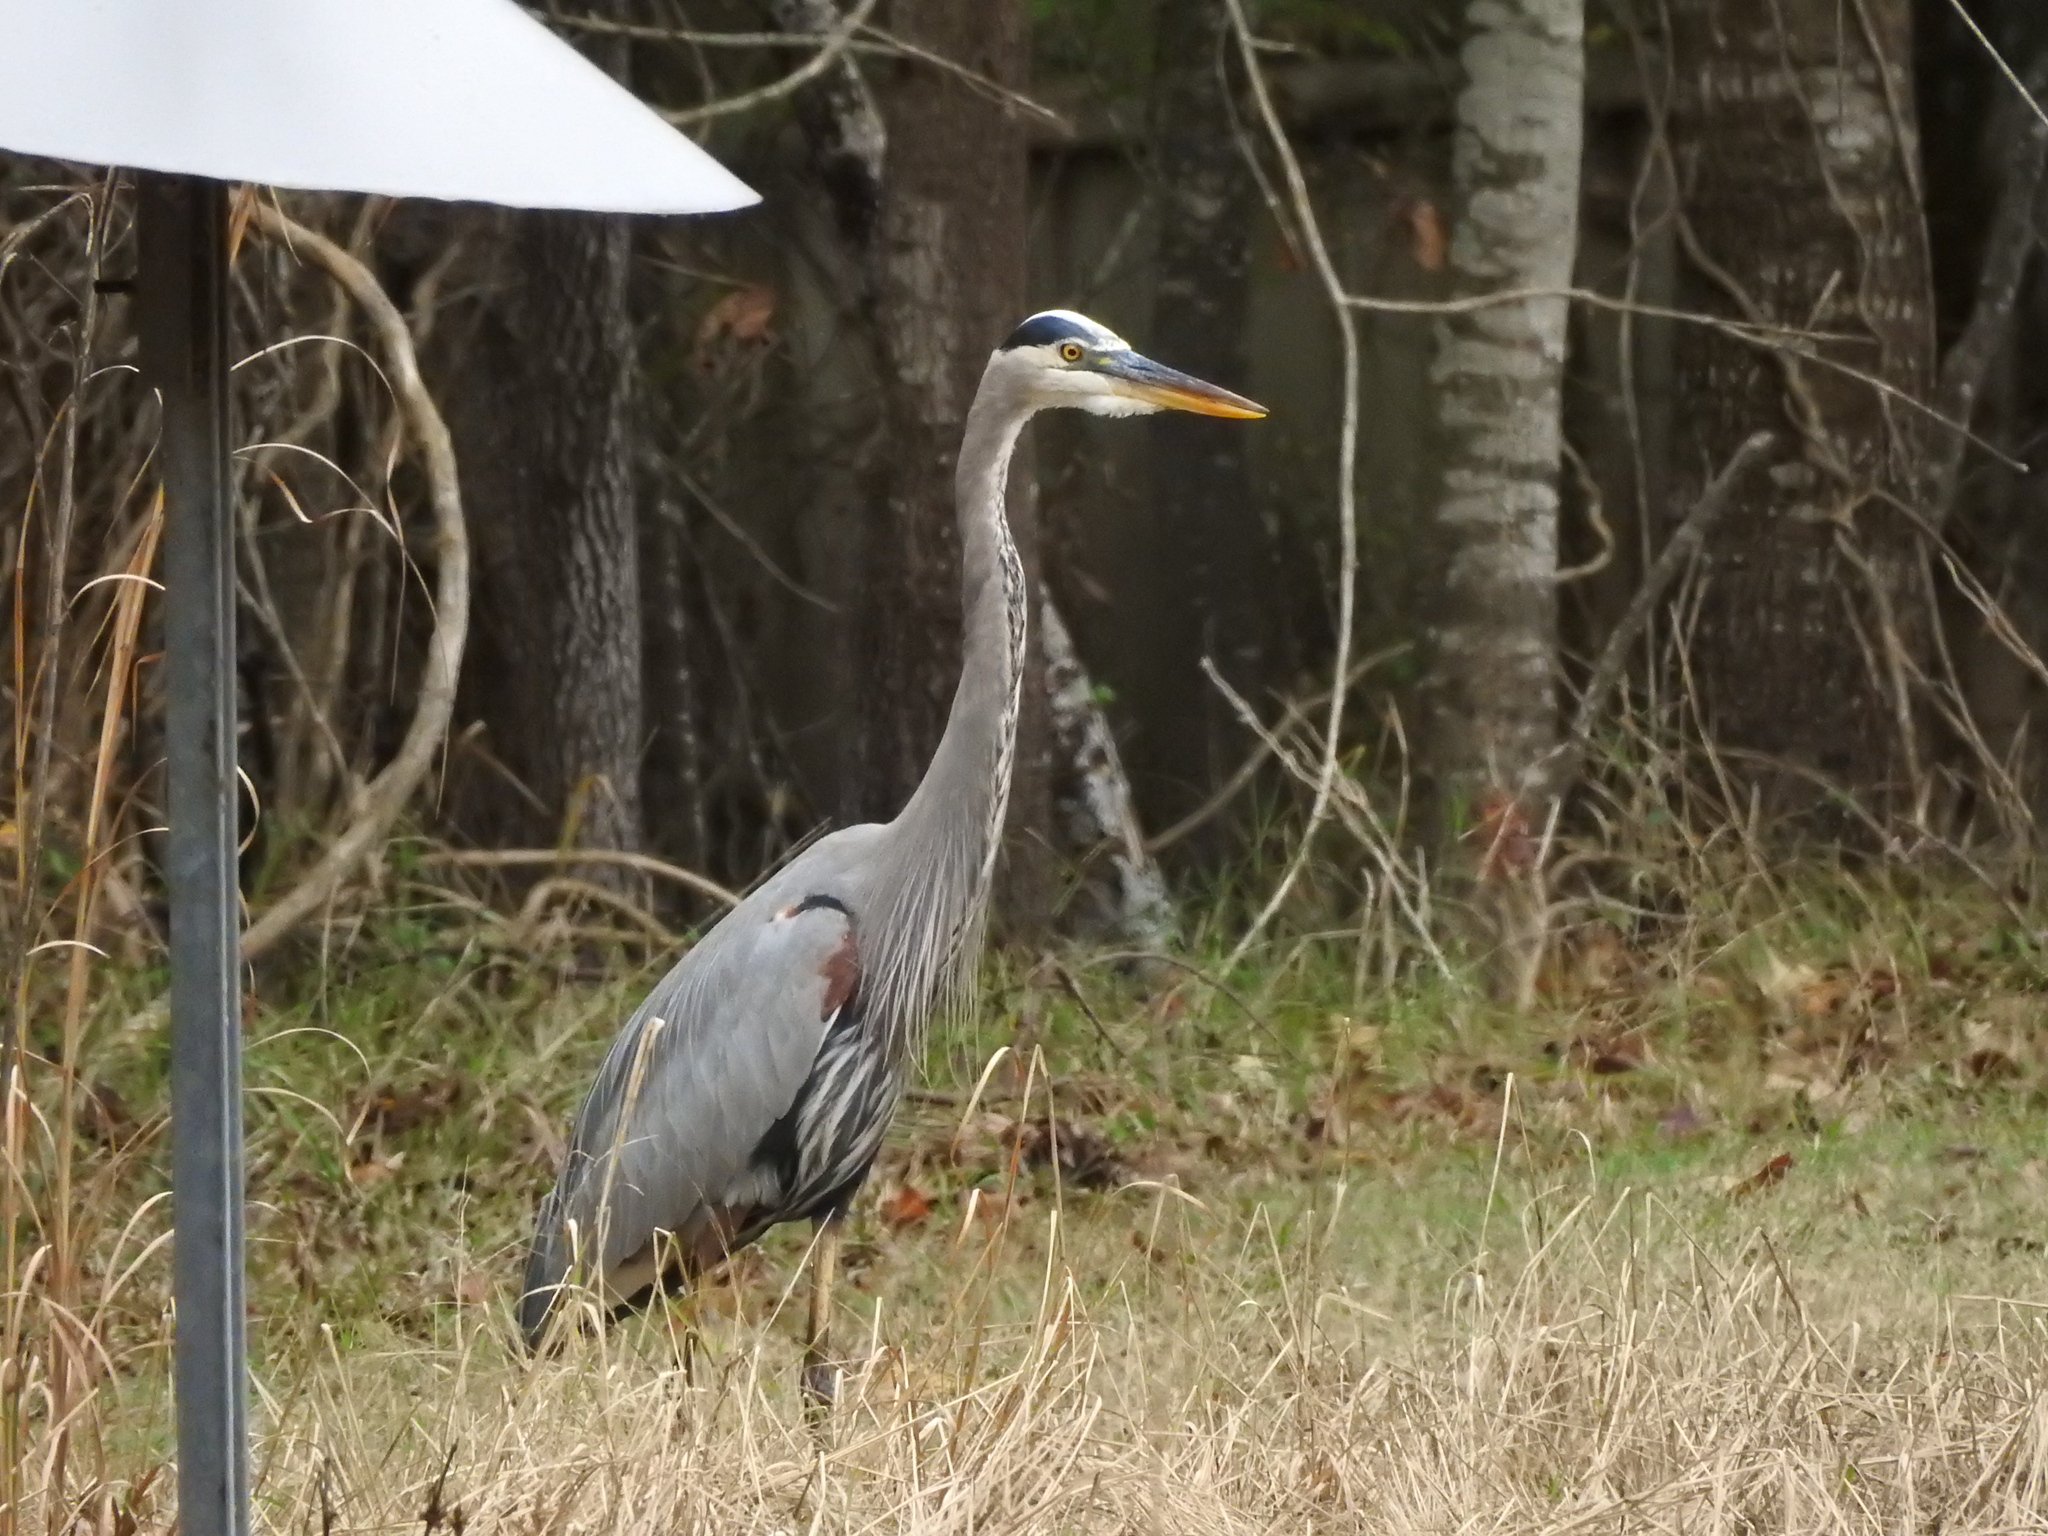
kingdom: Animalia
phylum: Chordata
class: Aves
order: Pelecaniformes
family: Ardeidae
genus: Ardea
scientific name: Ardea herodias
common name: Great blue heron
